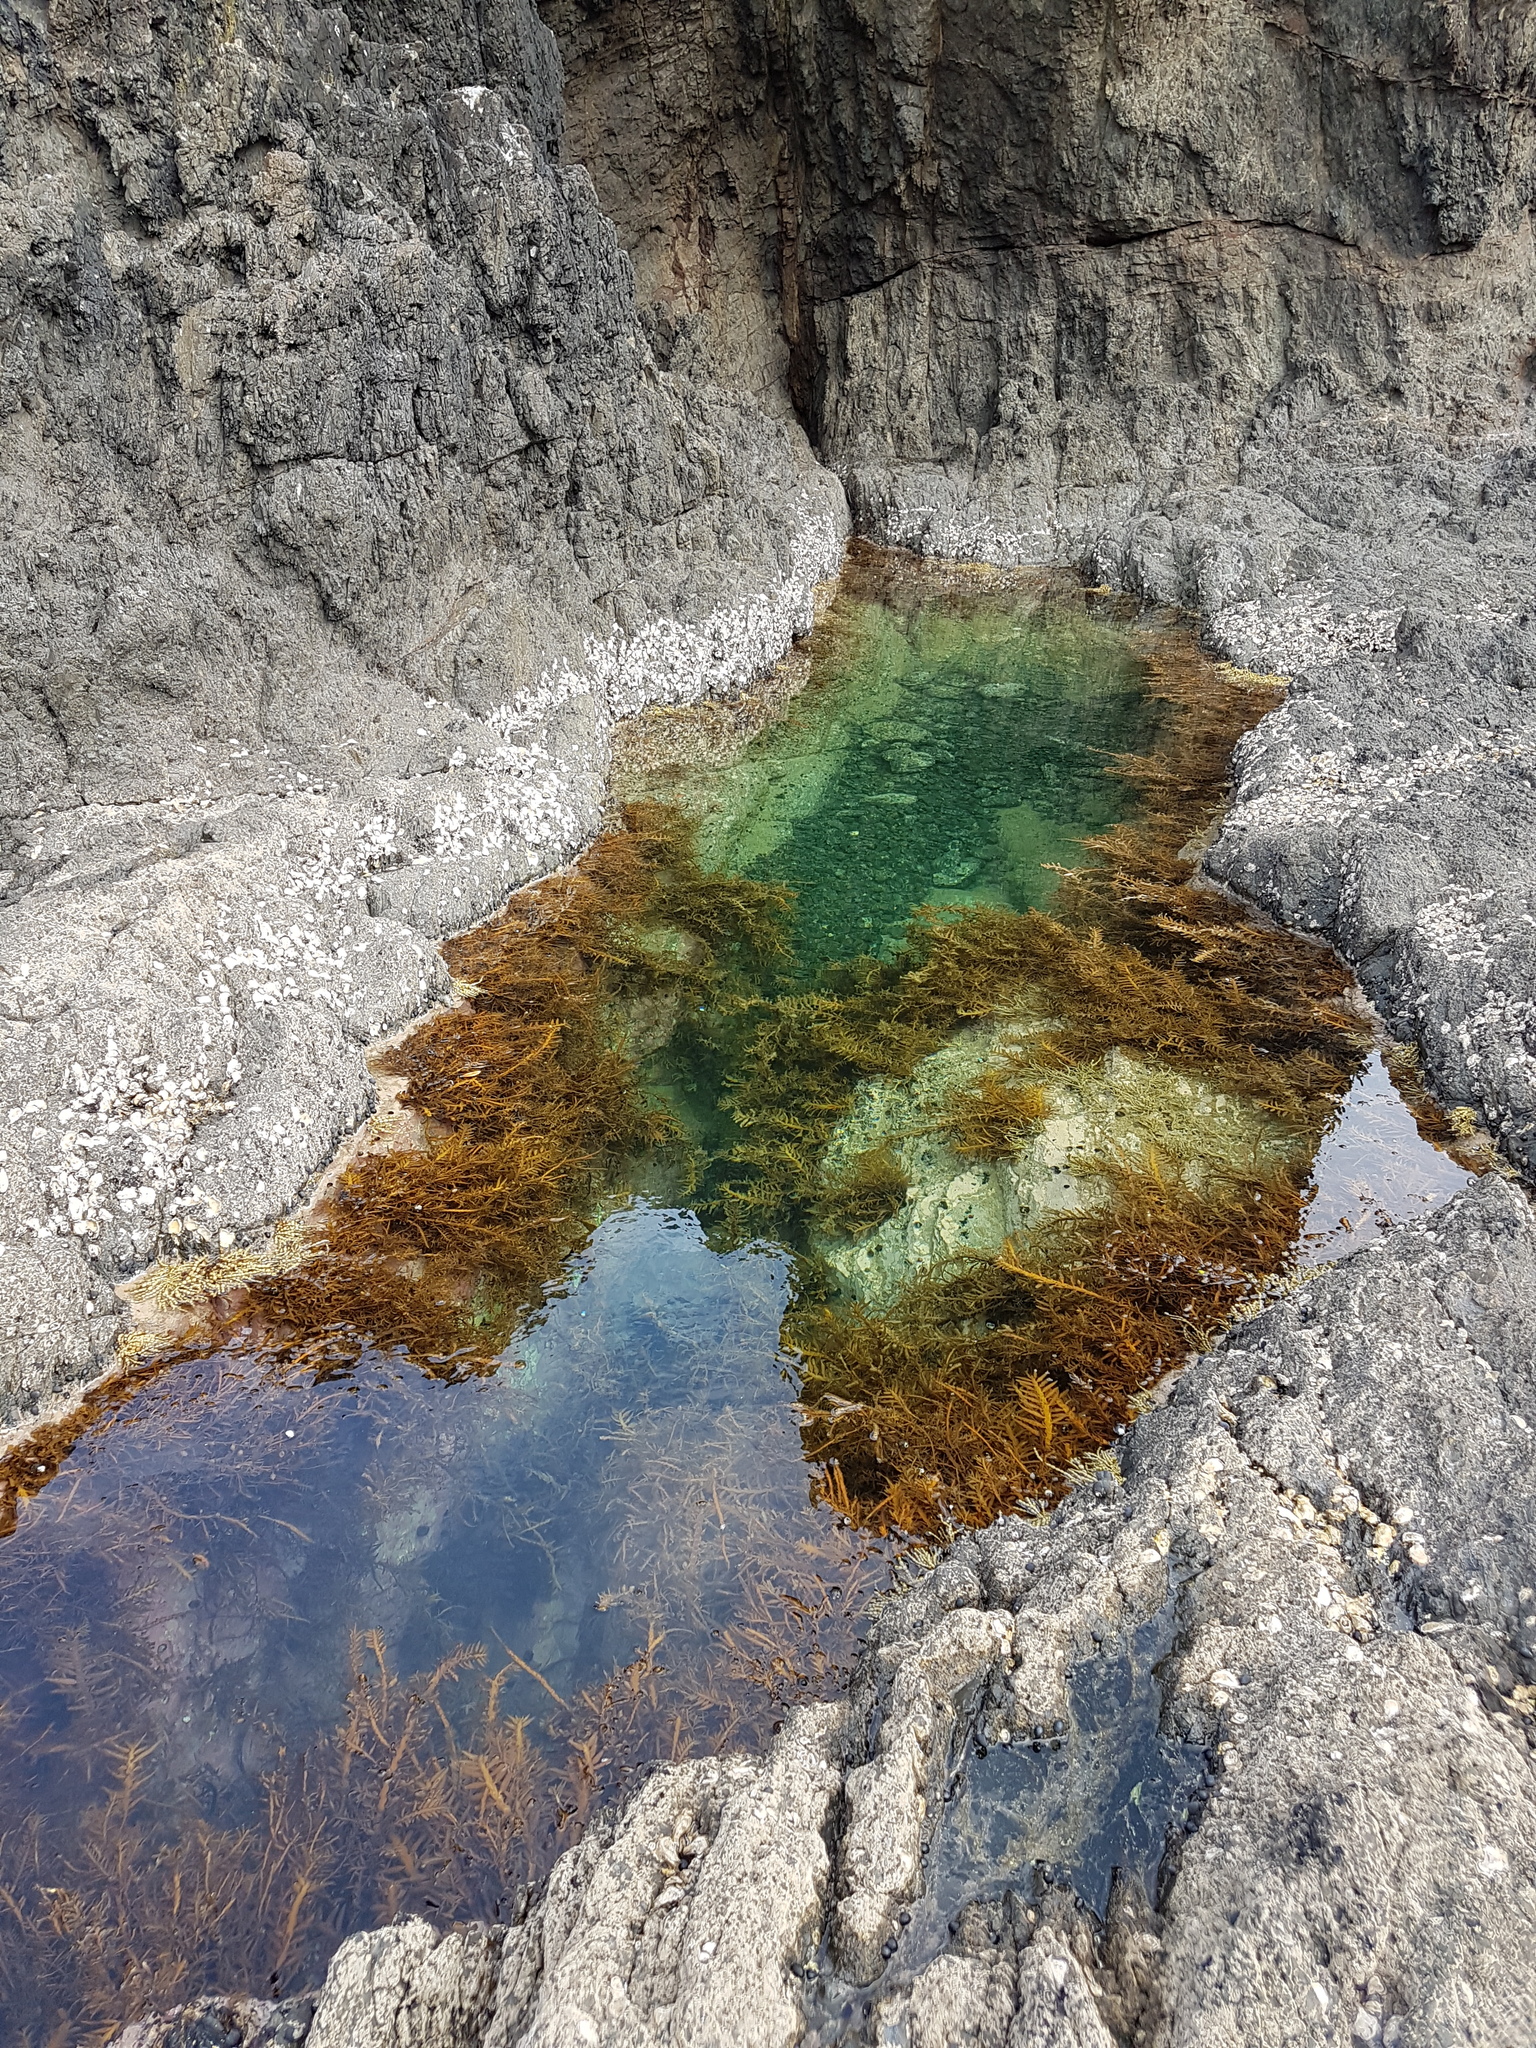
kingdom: Chromista
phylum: Ochrophyta
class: Phaeophyceae
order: Fucales
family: Sargassaceae
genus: Carpophyllum
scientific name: Carpophyllum maschalocarpum
